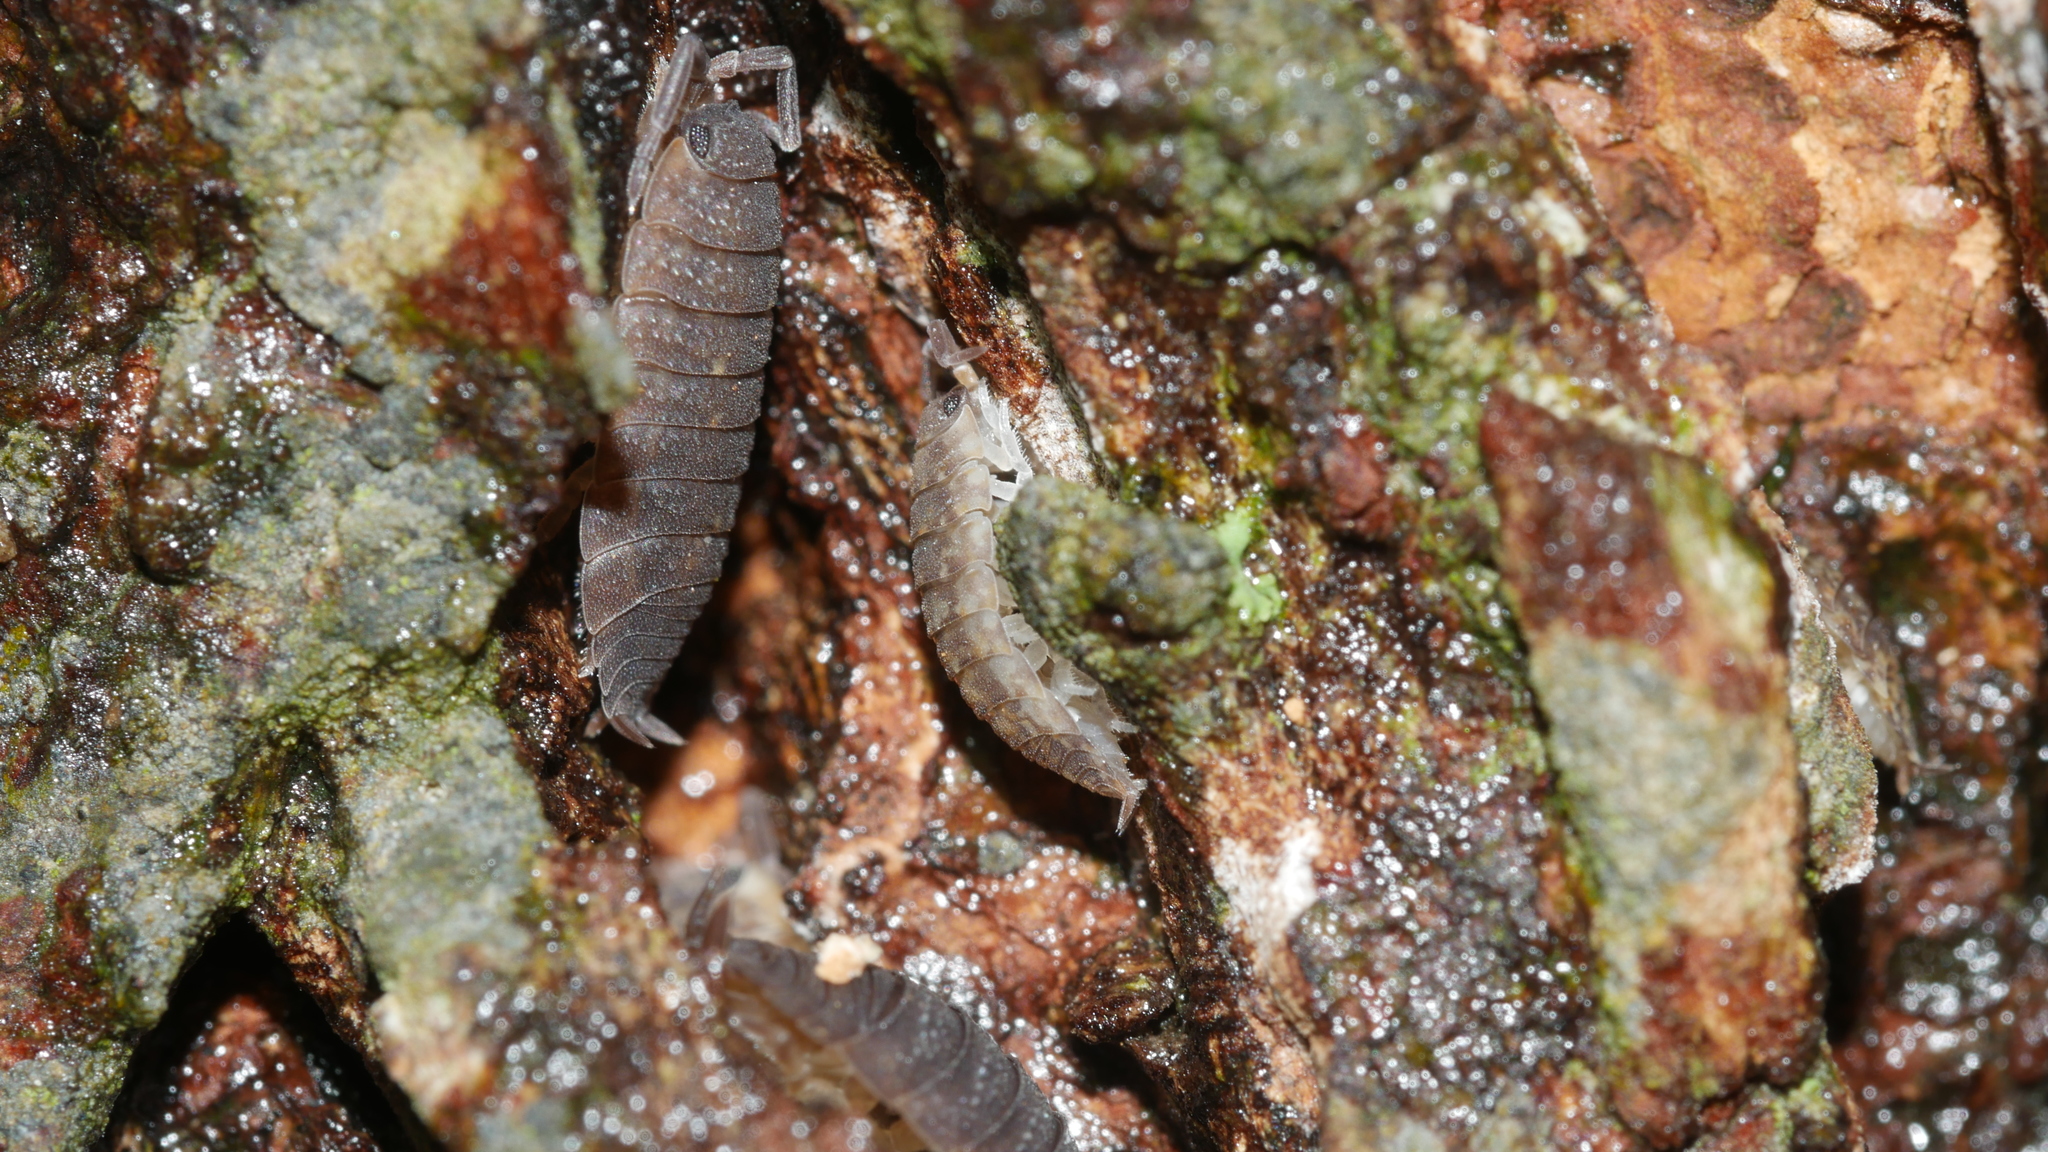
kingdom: Animalia
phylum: Arthropoda
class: Malacostraca
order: Isopoda
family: Porcellionidae
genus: Porcellio
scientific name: Porcellio scaber
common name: Common rough woodlouse
